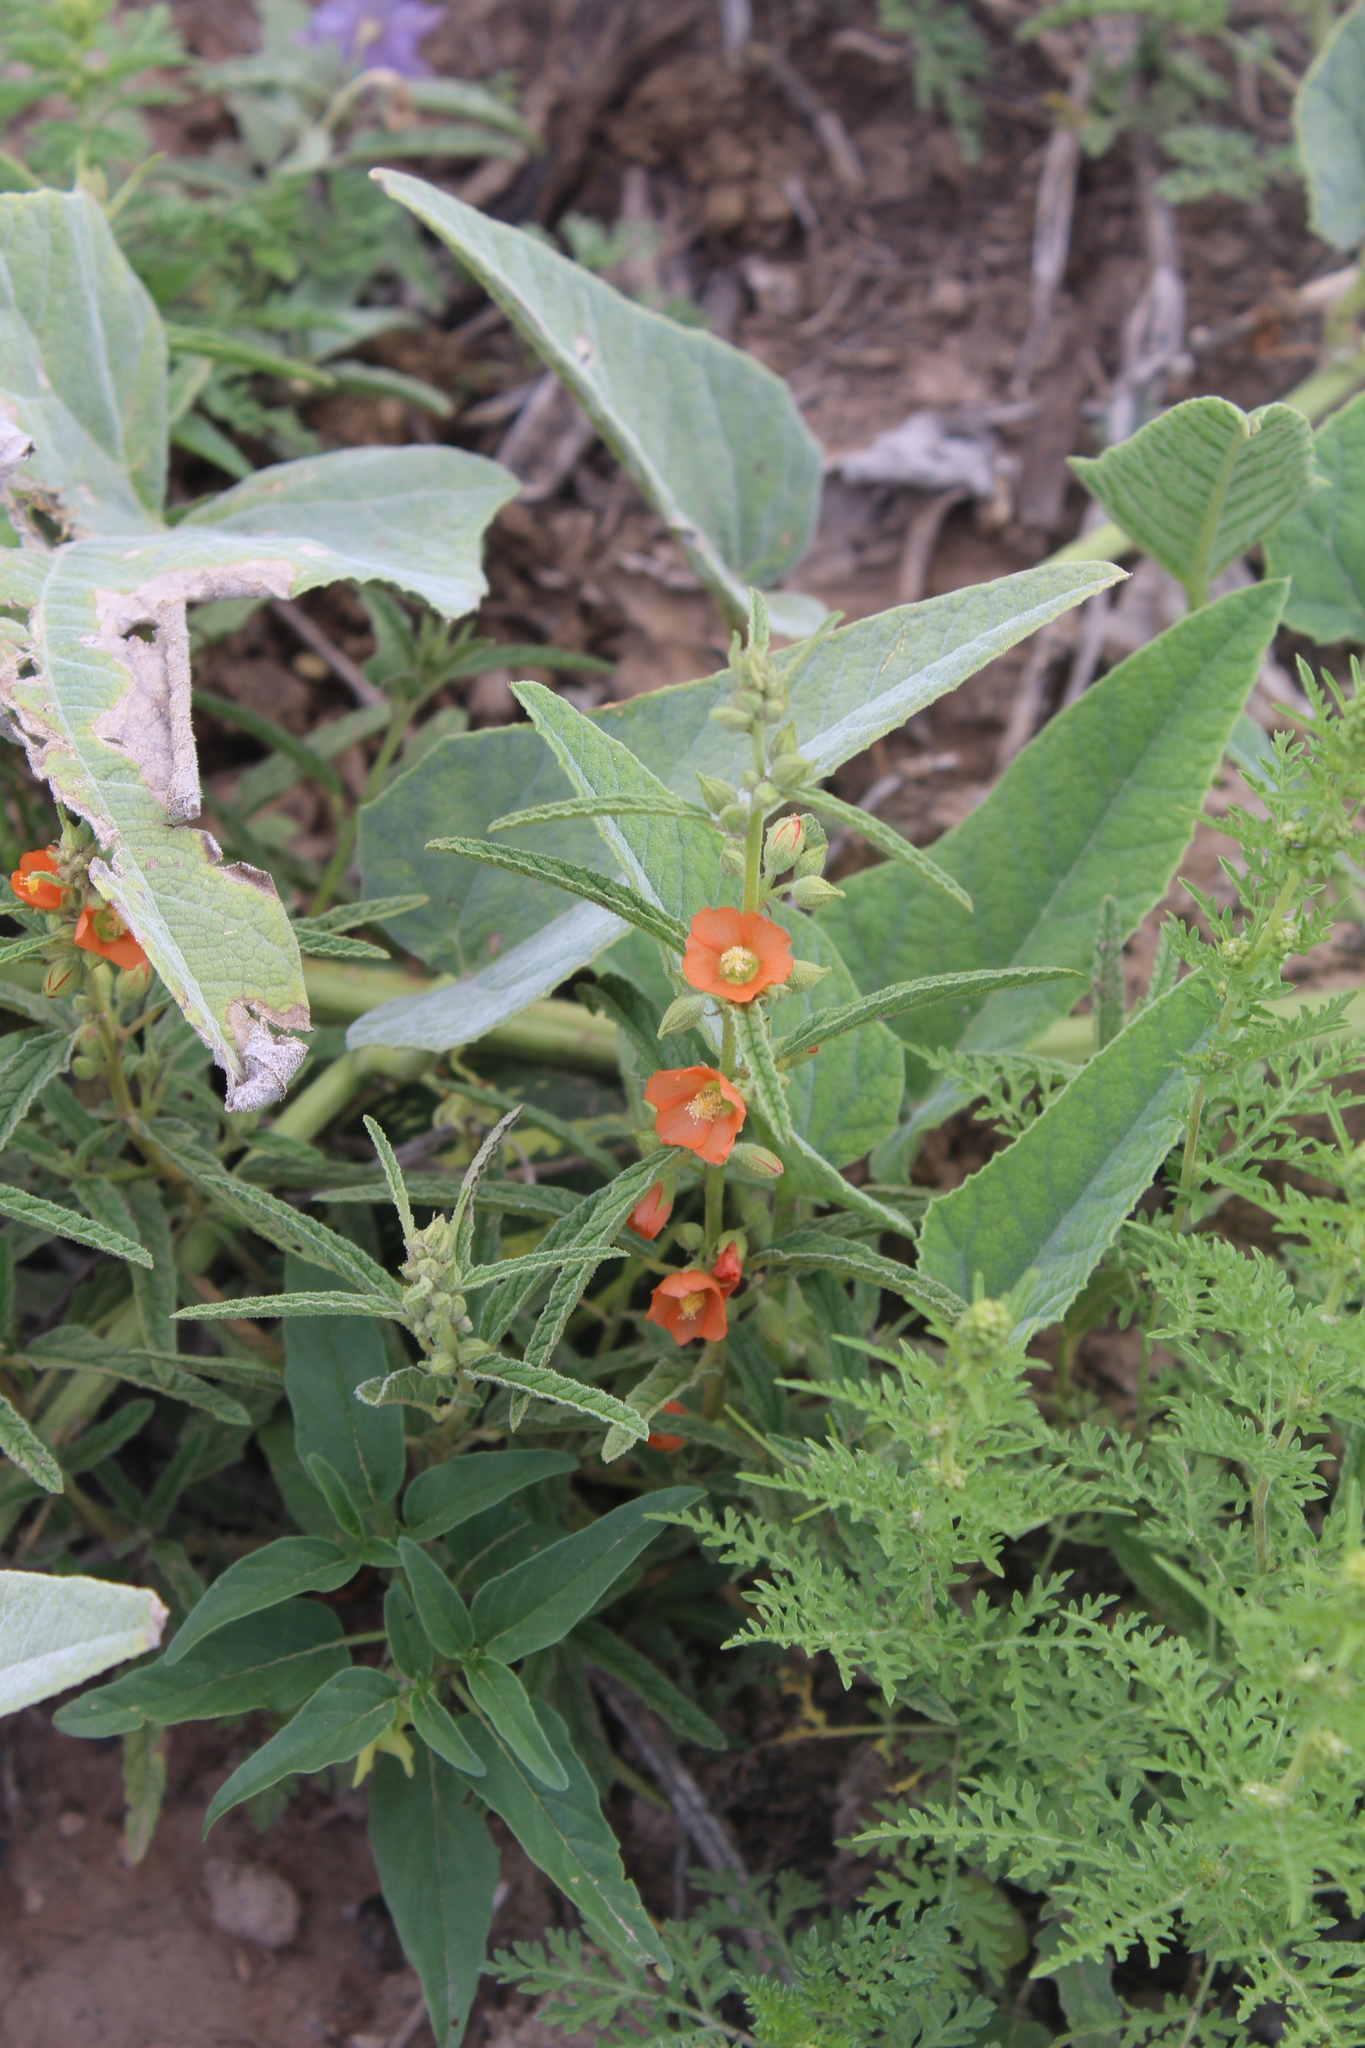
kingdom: Plantae
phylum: Tracheophyta
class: Magnoliopsida
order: Malvales
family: Malvaceae
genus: Sphaeralcea
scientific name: Sphaeralcea hastulata
